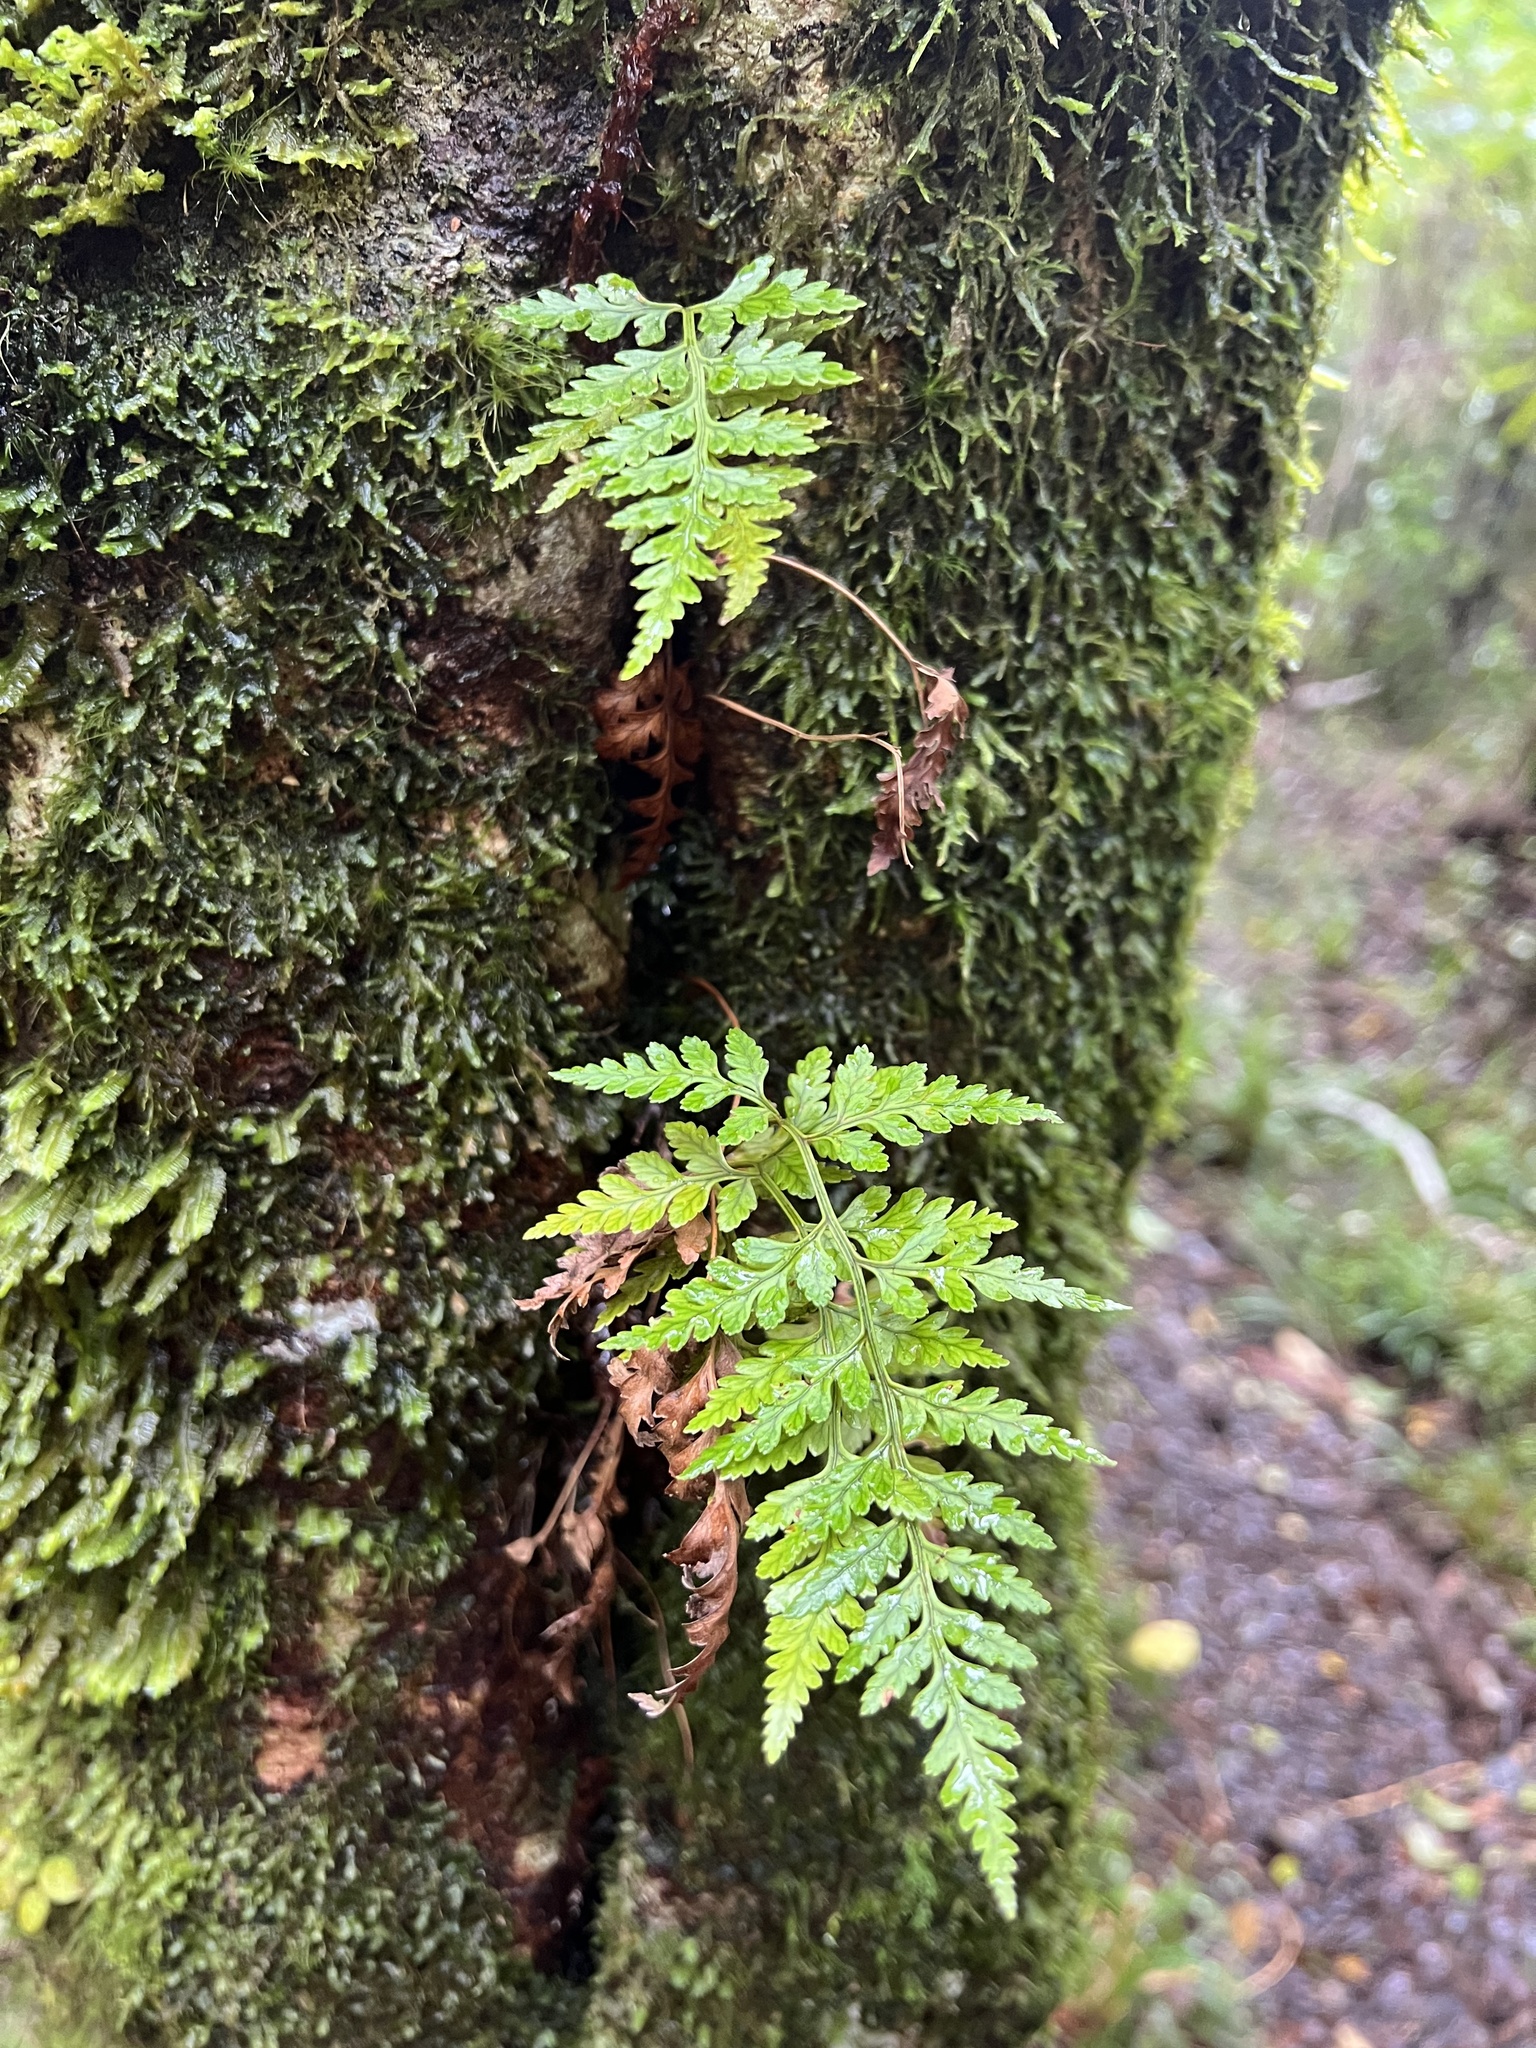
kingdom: Plantae
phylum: Tracheophyta
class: Polypodiopsida
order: Polypodiales
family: Dryopteridaceae
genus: Rumohra
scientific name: Rumohra adiantiformis
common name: Leather fern
